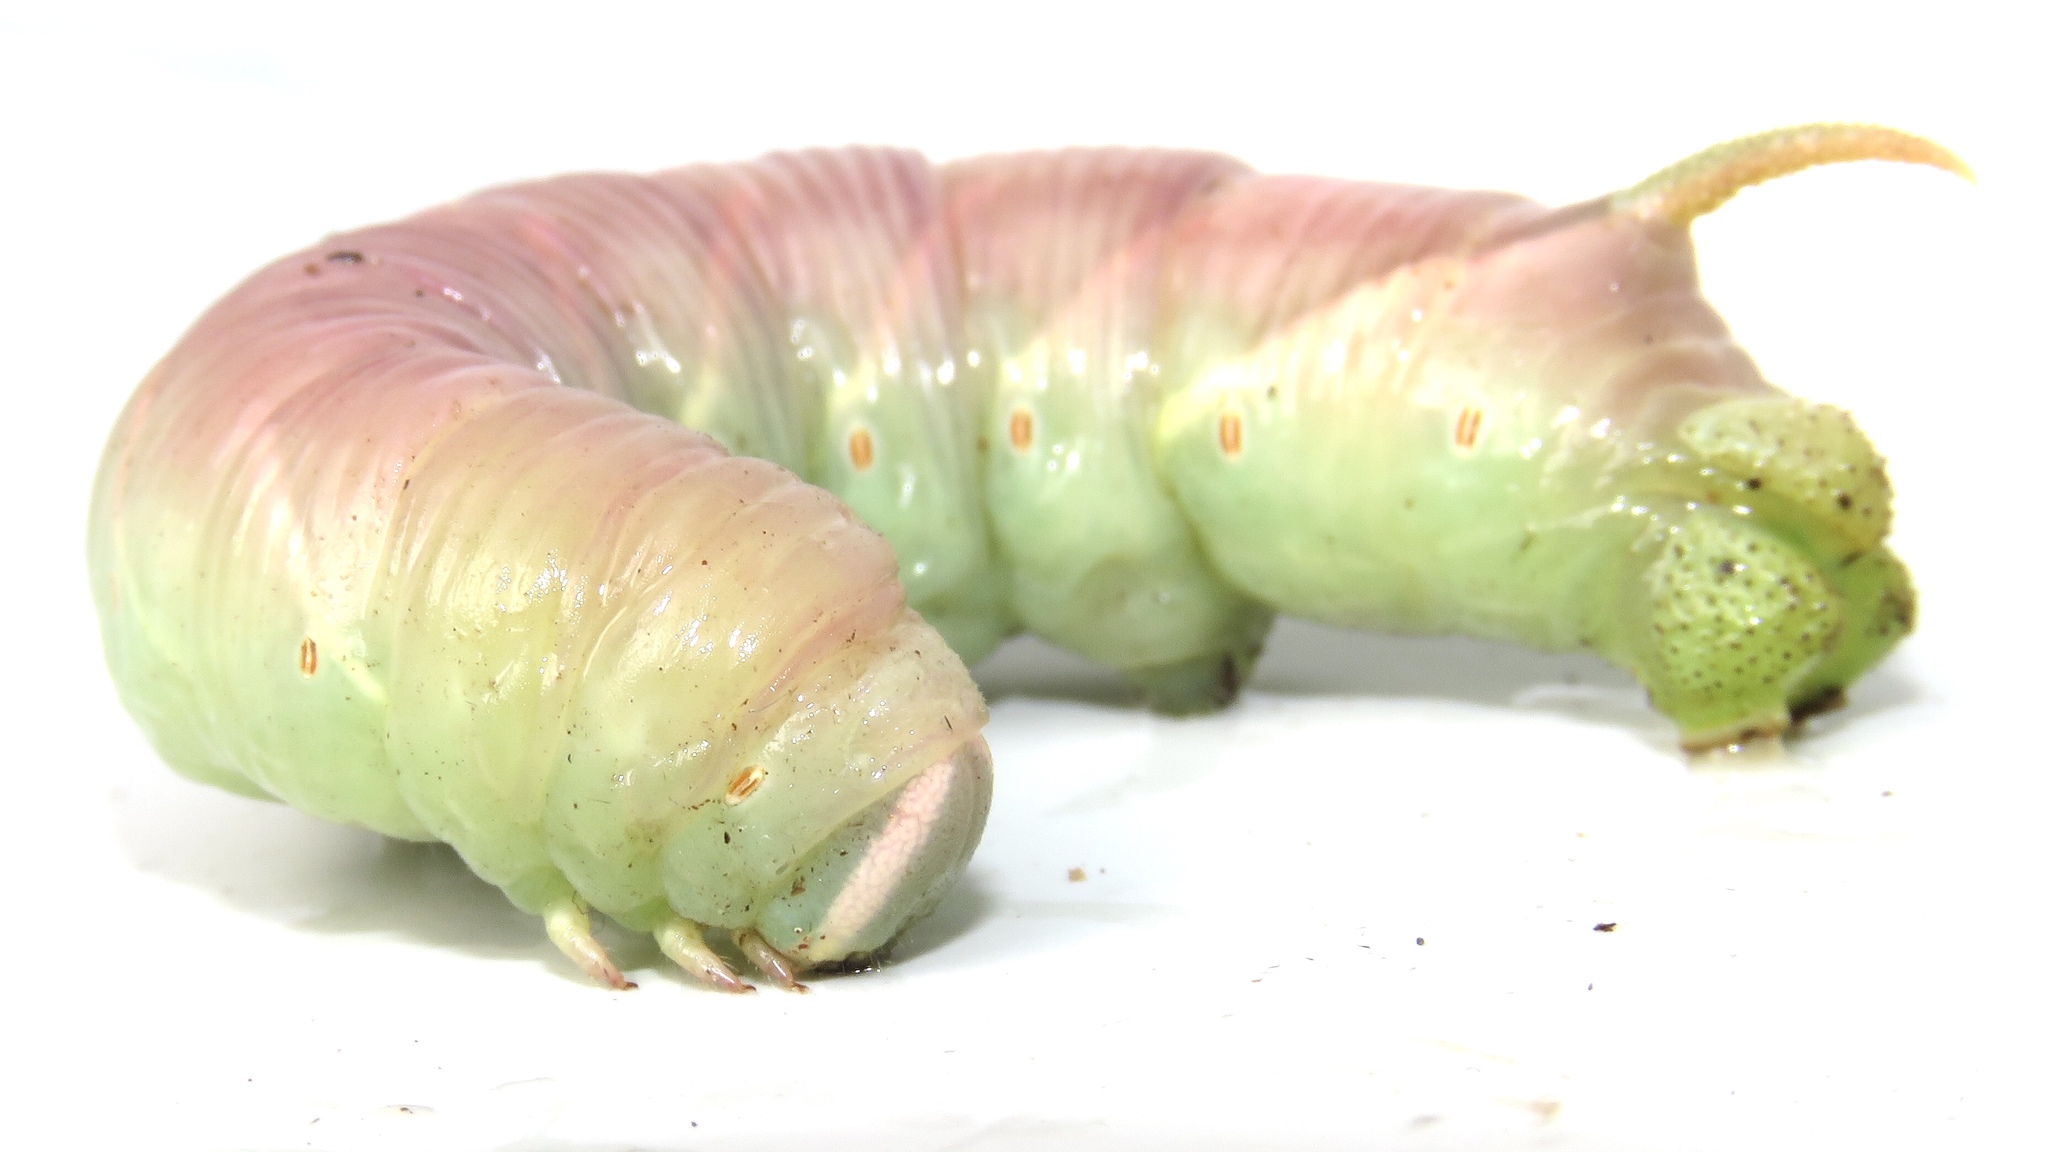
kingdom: Animalia
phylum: Arthropoda
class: Insecta
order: Lepidoptera
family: Sphingidae
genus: Ceratomia
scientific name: Ceratomia undulosa
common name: Waved sphinx
